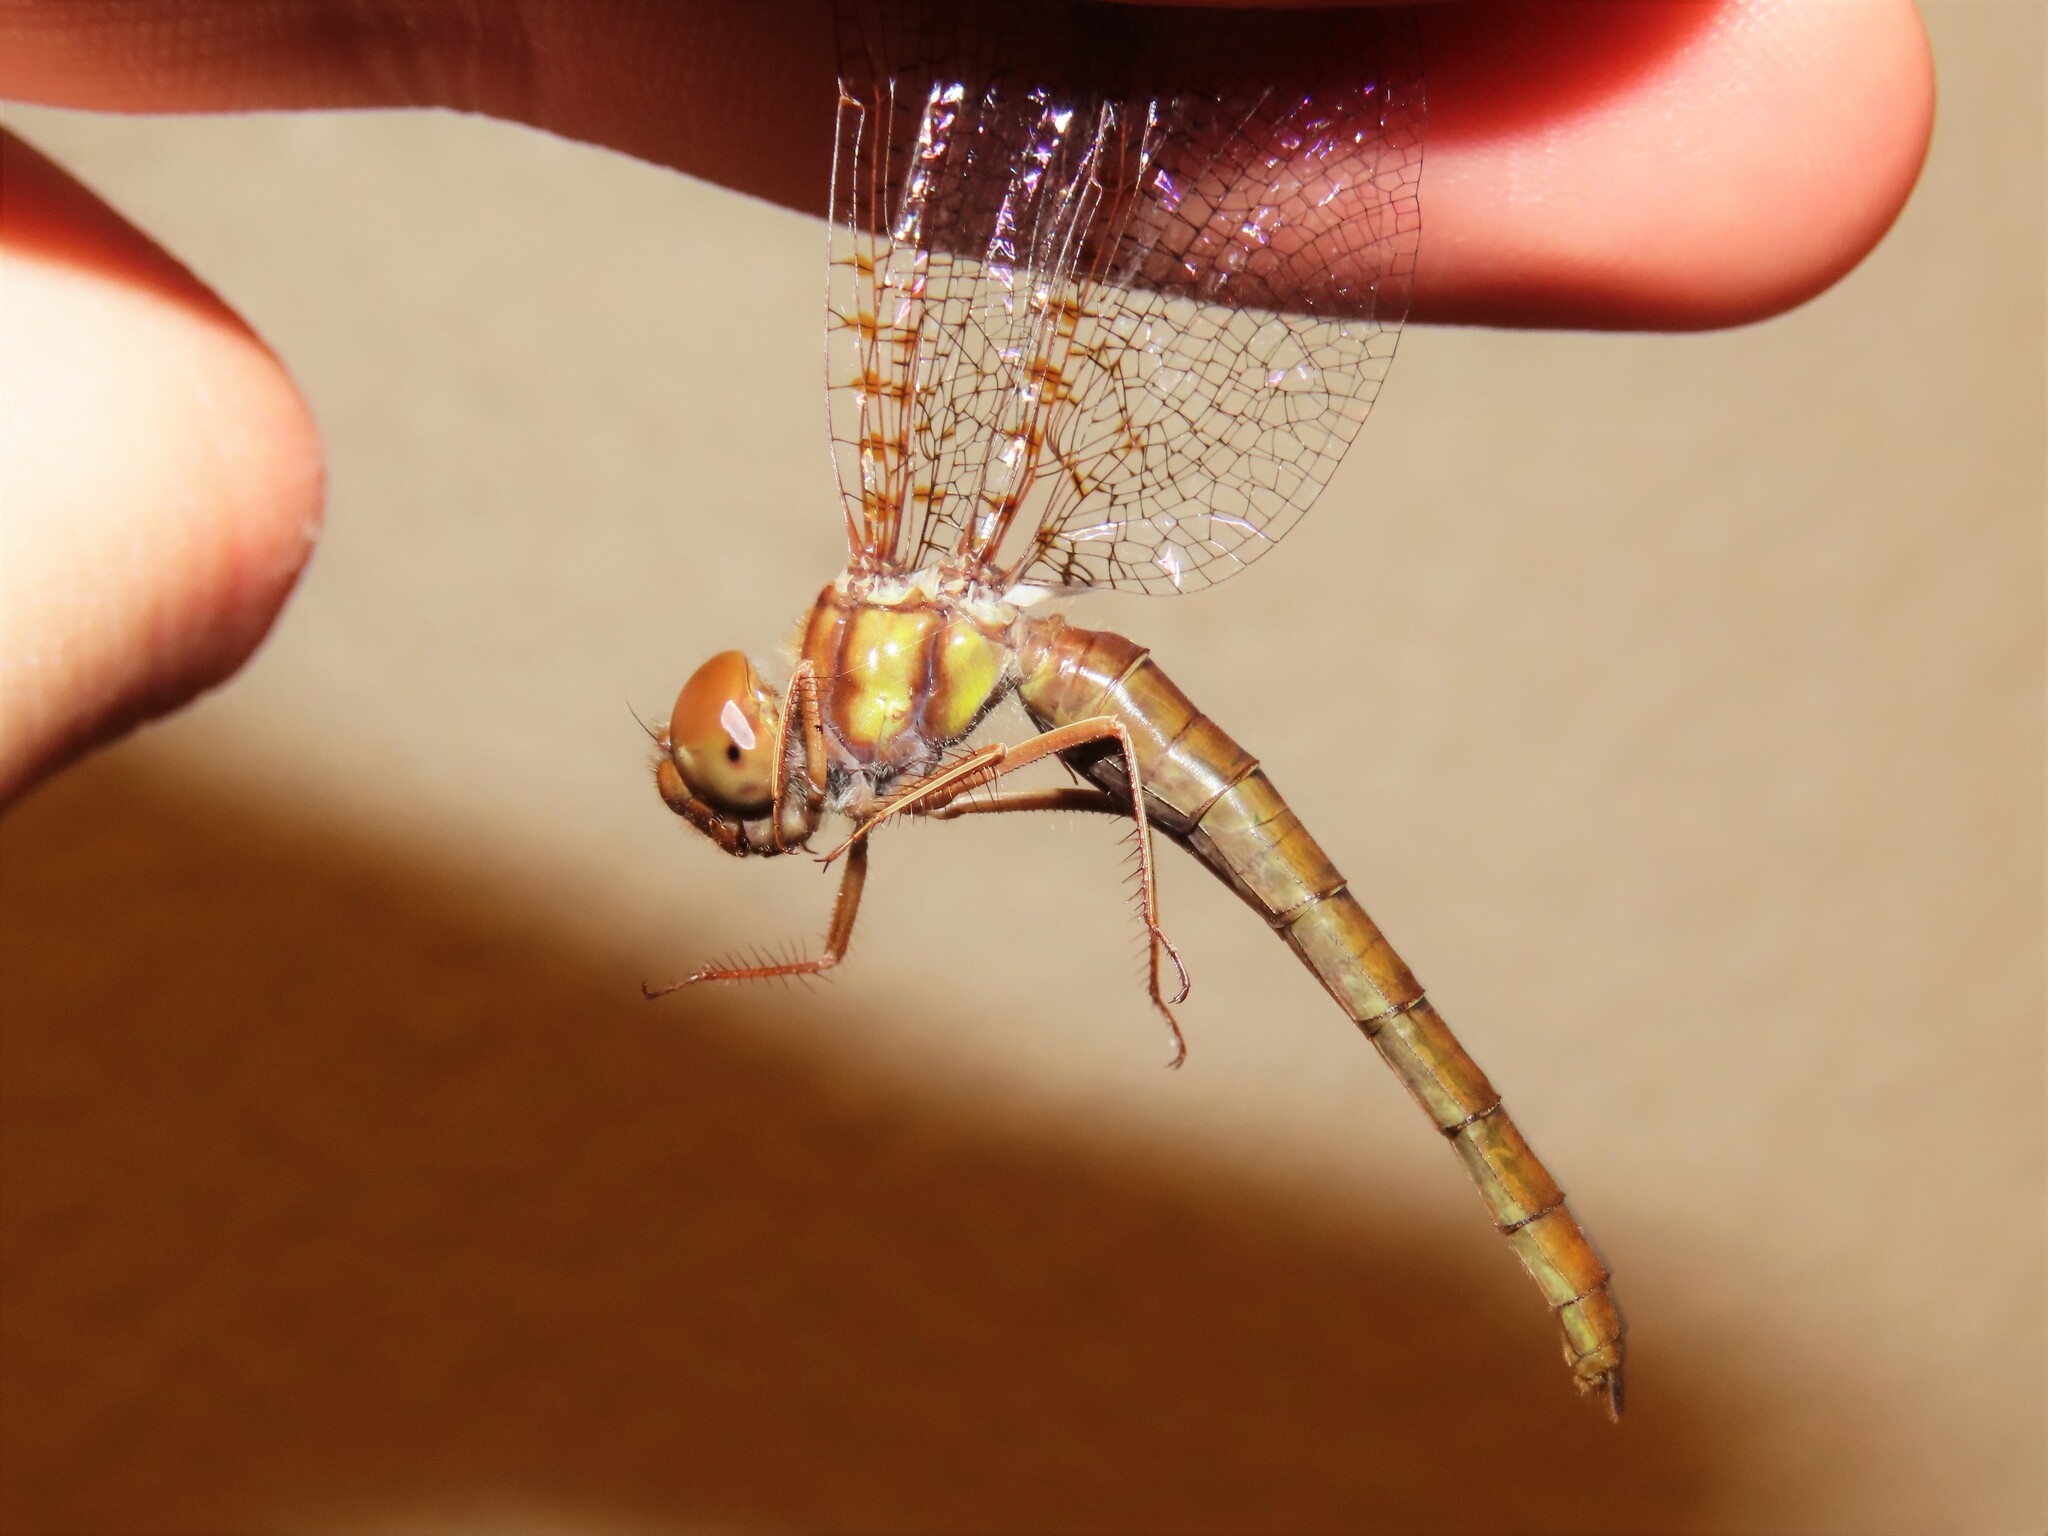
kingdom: Animalia
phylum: Arthropoda
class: Insecta
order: Odonata
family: Corduliidae
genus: Neurocordulia
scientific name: Neurocordulia alabamensis
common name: Alabama shadowdragon
